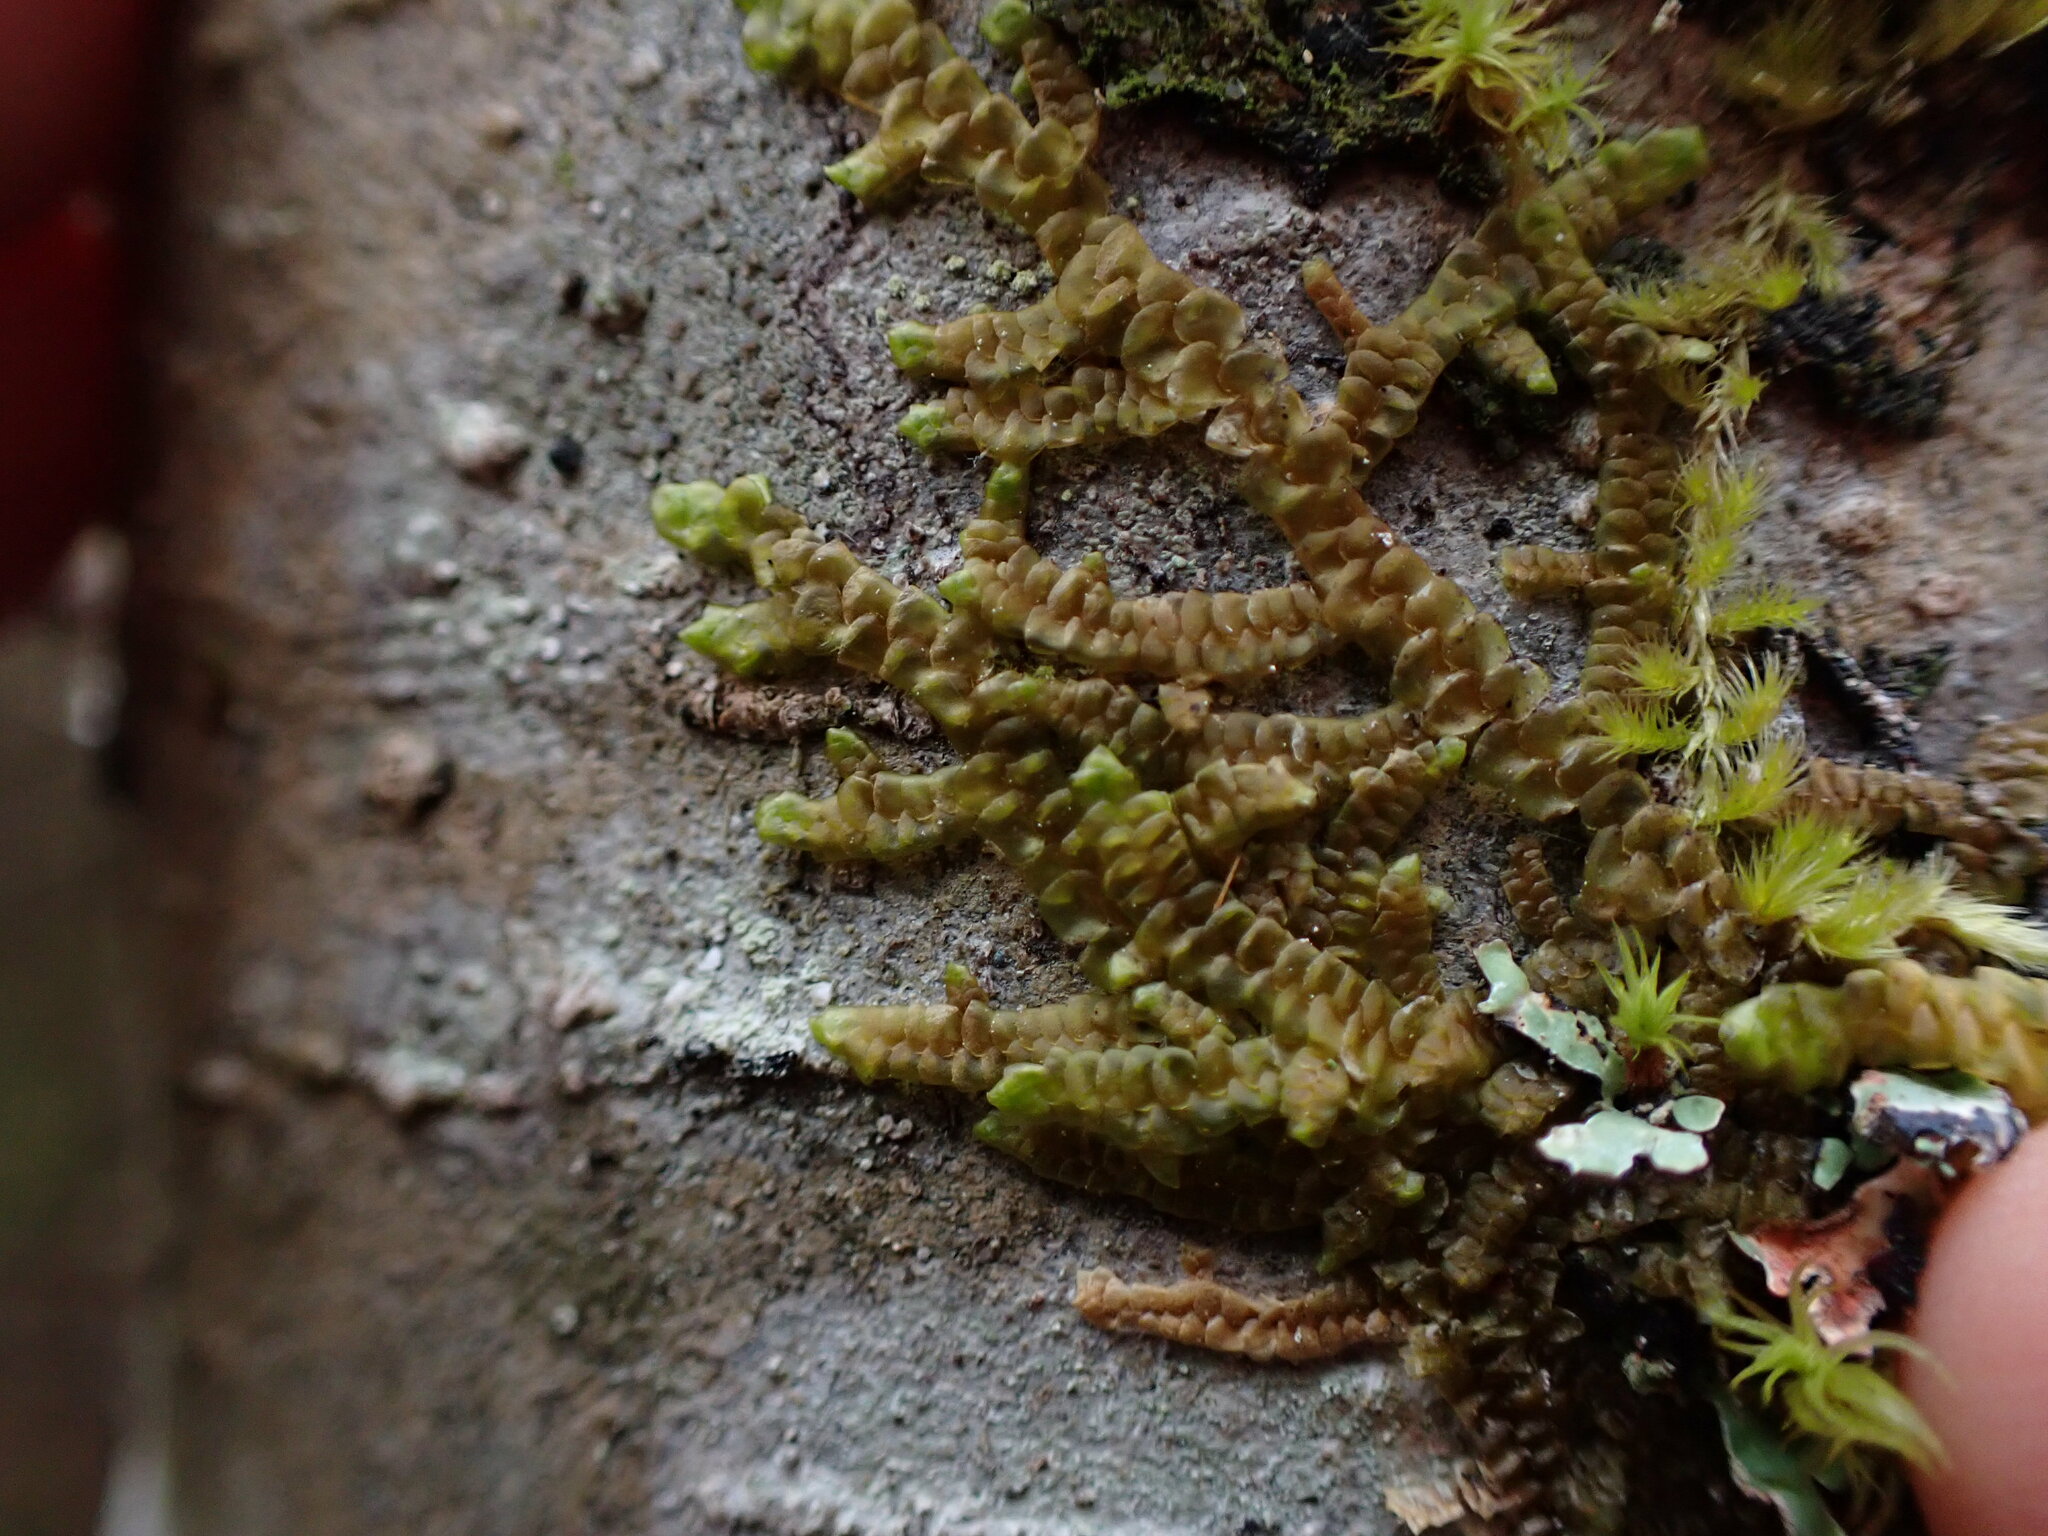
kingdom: Plantae
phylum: Marchantiophyta
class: Jungermanniopsida
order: Porellales
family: Porellaceae
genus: Porella
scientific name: Porella navicularis
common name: Tree ruffle liverwort
